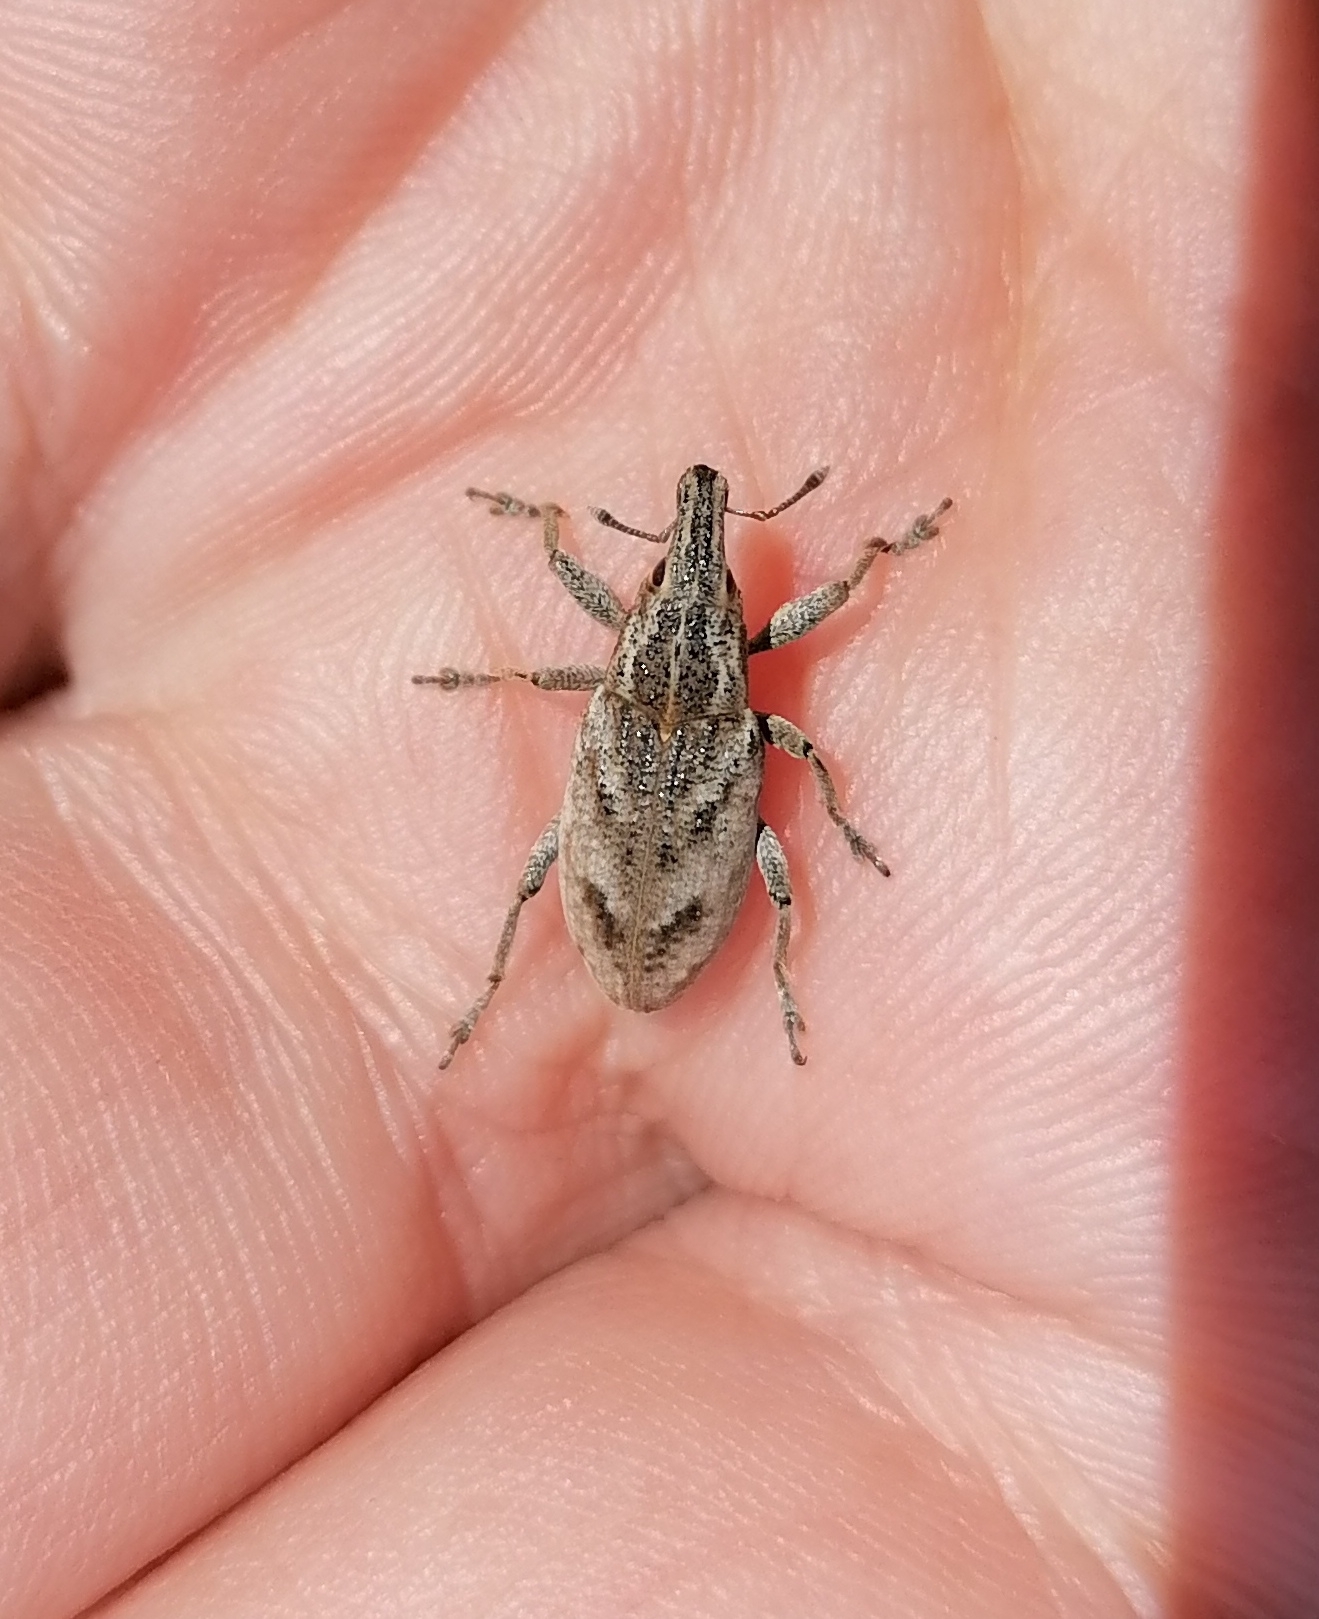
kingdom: Animalia
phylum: Arthropoda
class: Insecta
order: Coleoptera
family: Curculionidae
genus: Cleonis
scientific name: Cleonis pigra
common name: Large thistle weevil
